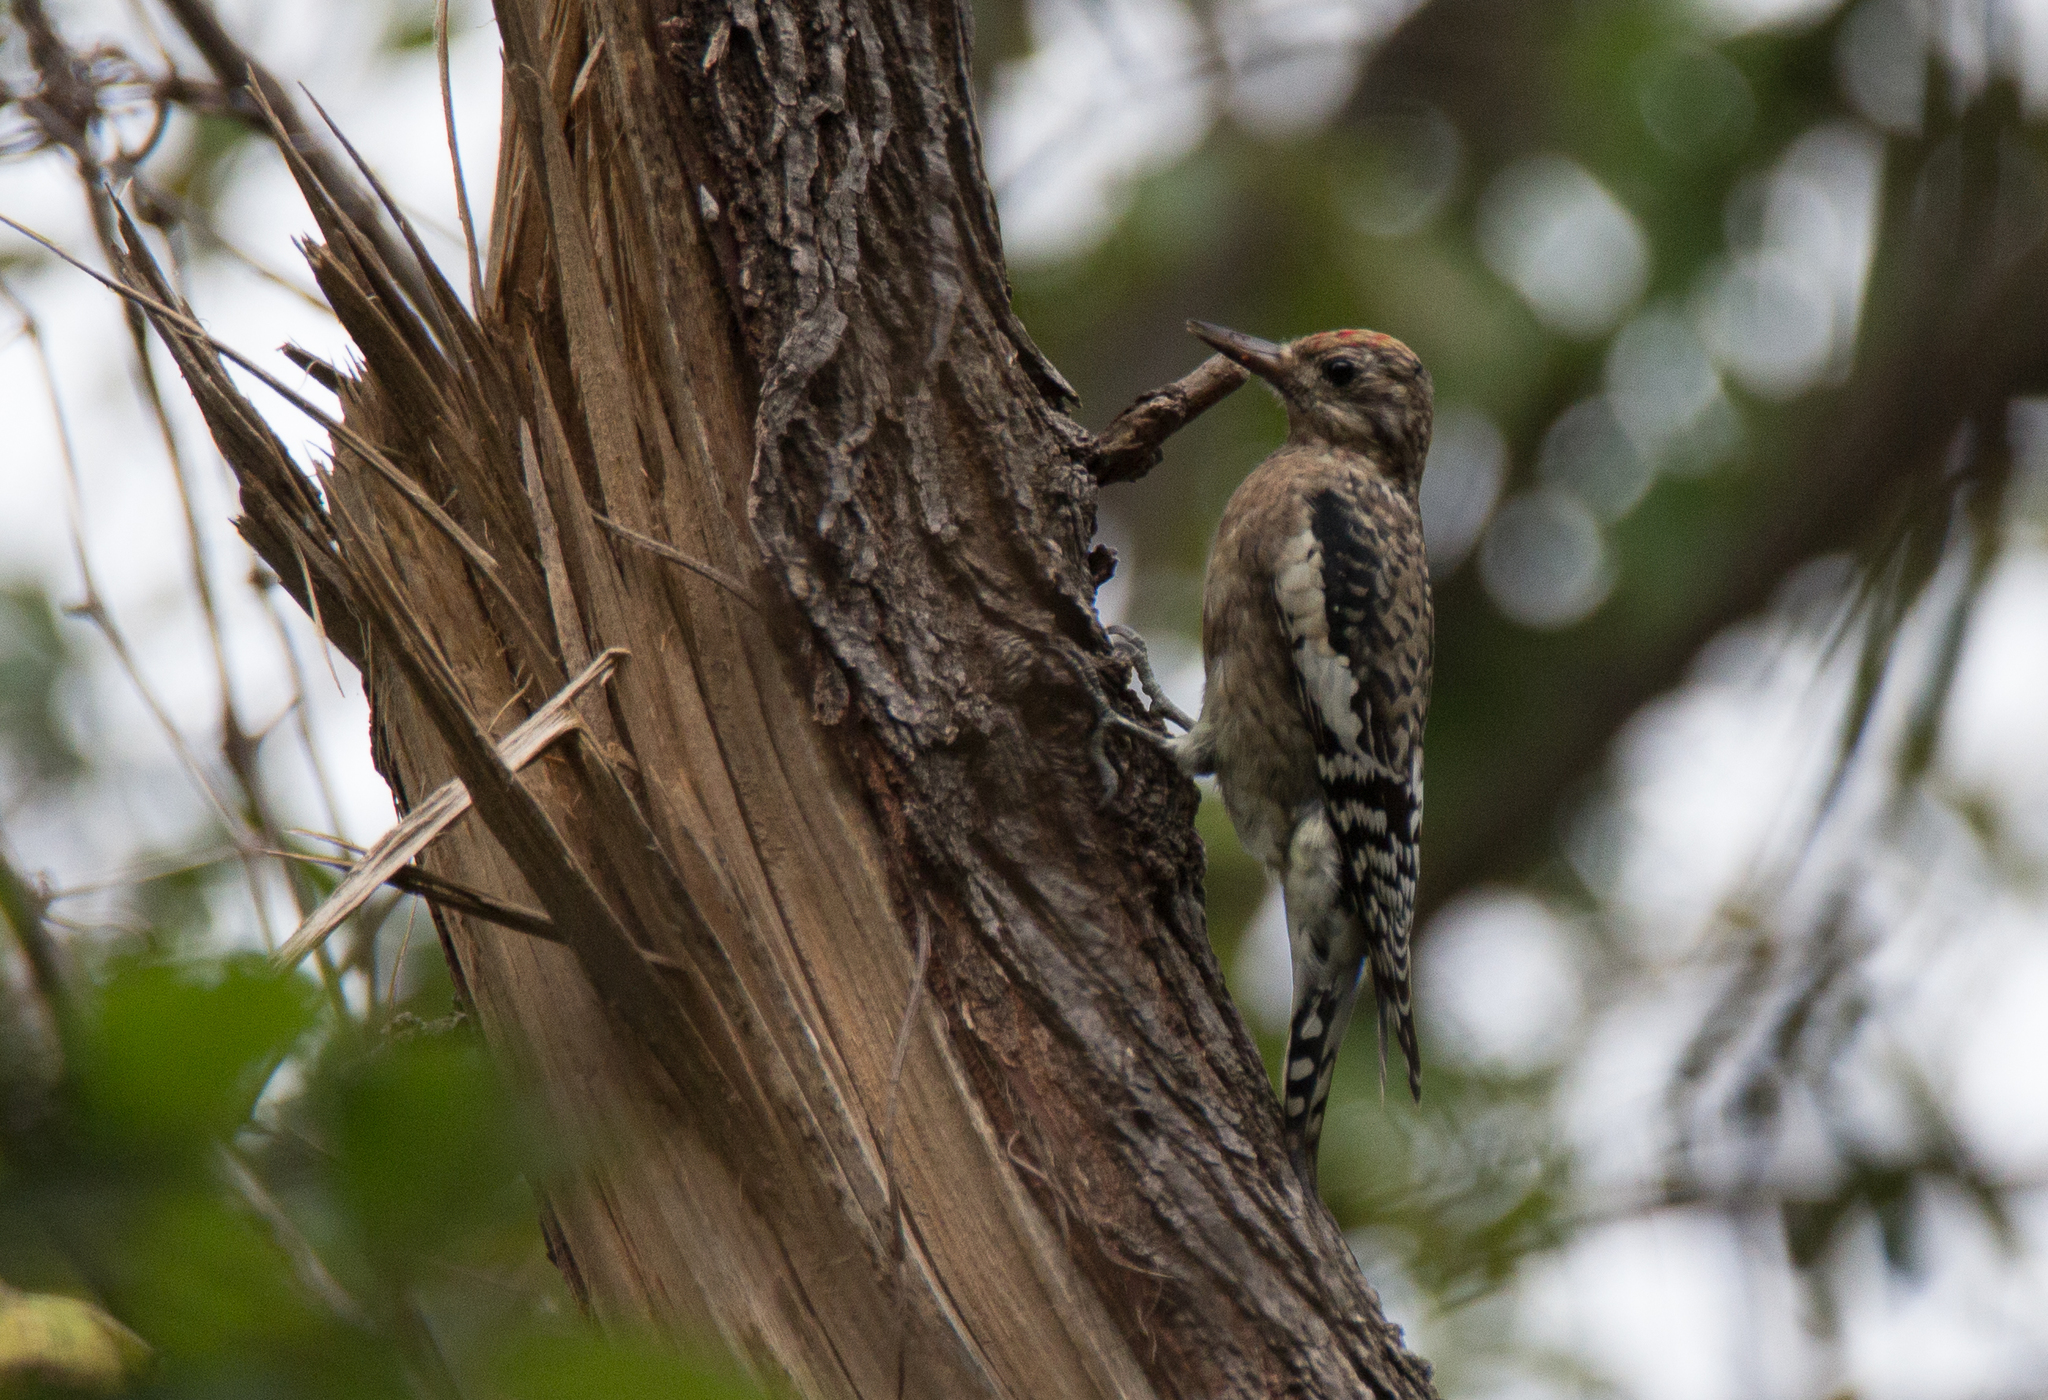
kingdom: Animalia
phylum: Chordata
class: Aves
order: Piciformes
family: Picidae
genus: Sphyrapicus
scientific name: Sphyrapicus varius
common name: Yellow-bellied sapsucker
